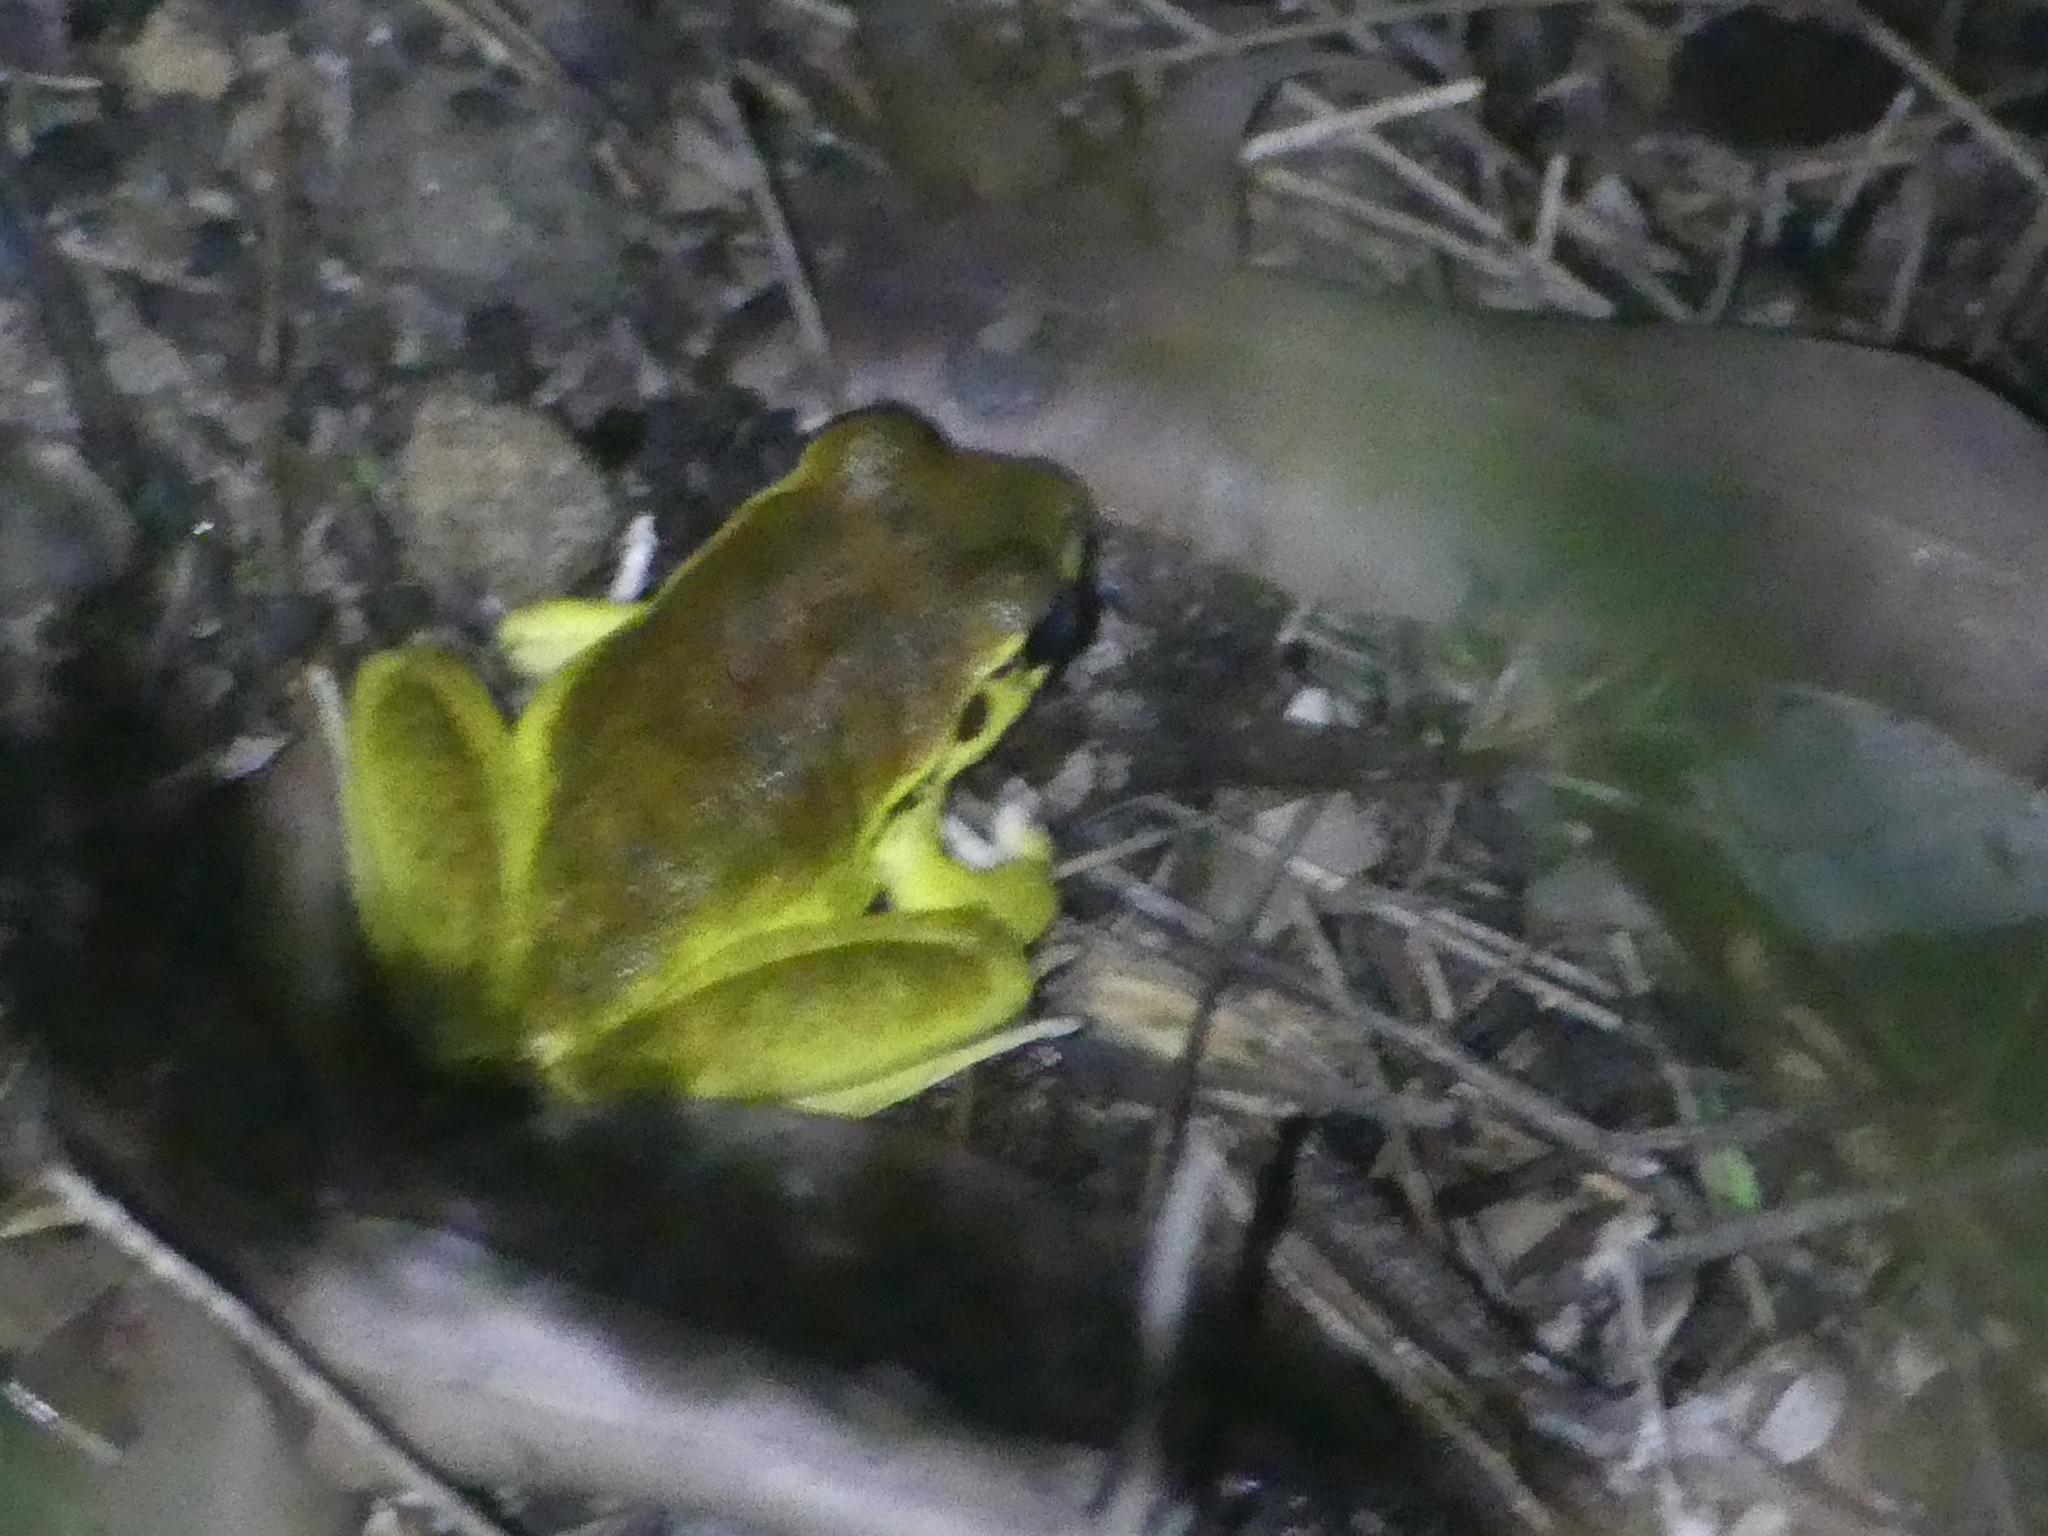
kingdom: Animalia
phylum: Chordata
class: Amphibia
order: Anura
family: Pelodryadidae
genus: Ranoidea
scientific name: Ranoidea wilcoxii
